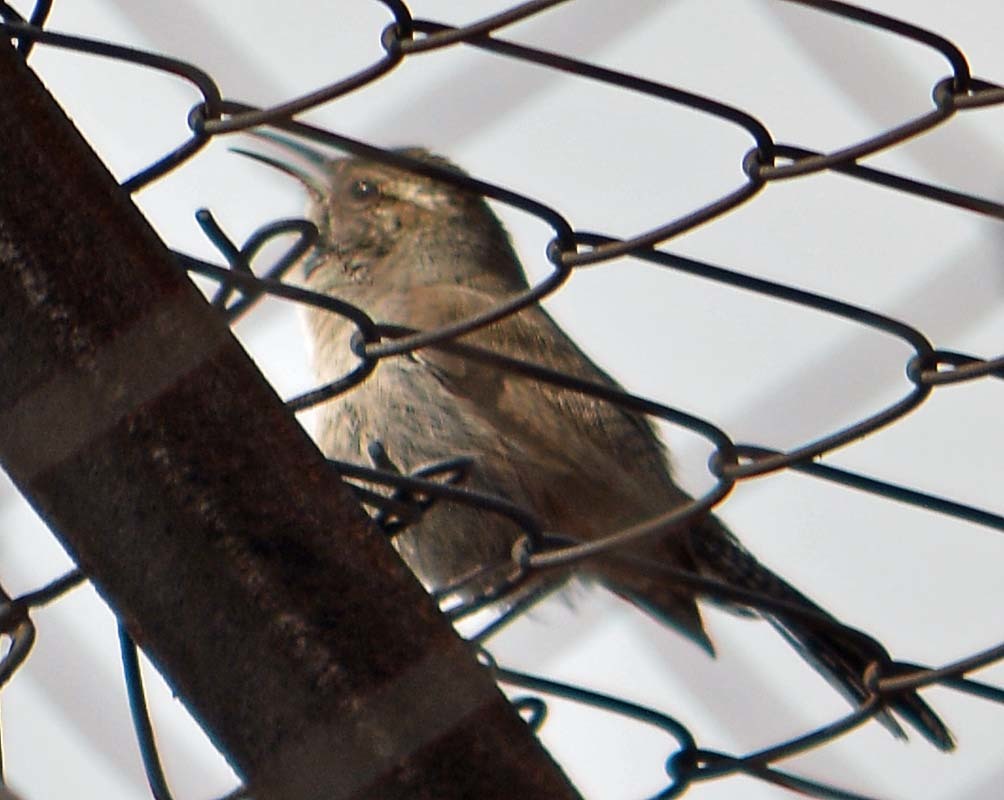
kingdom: Animalia
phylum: Chordata
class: Aves
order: Passeriformes
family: Troglodytidae
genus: Thryomanes
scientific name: Thryomanes bewickii
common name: Bewick's wren
